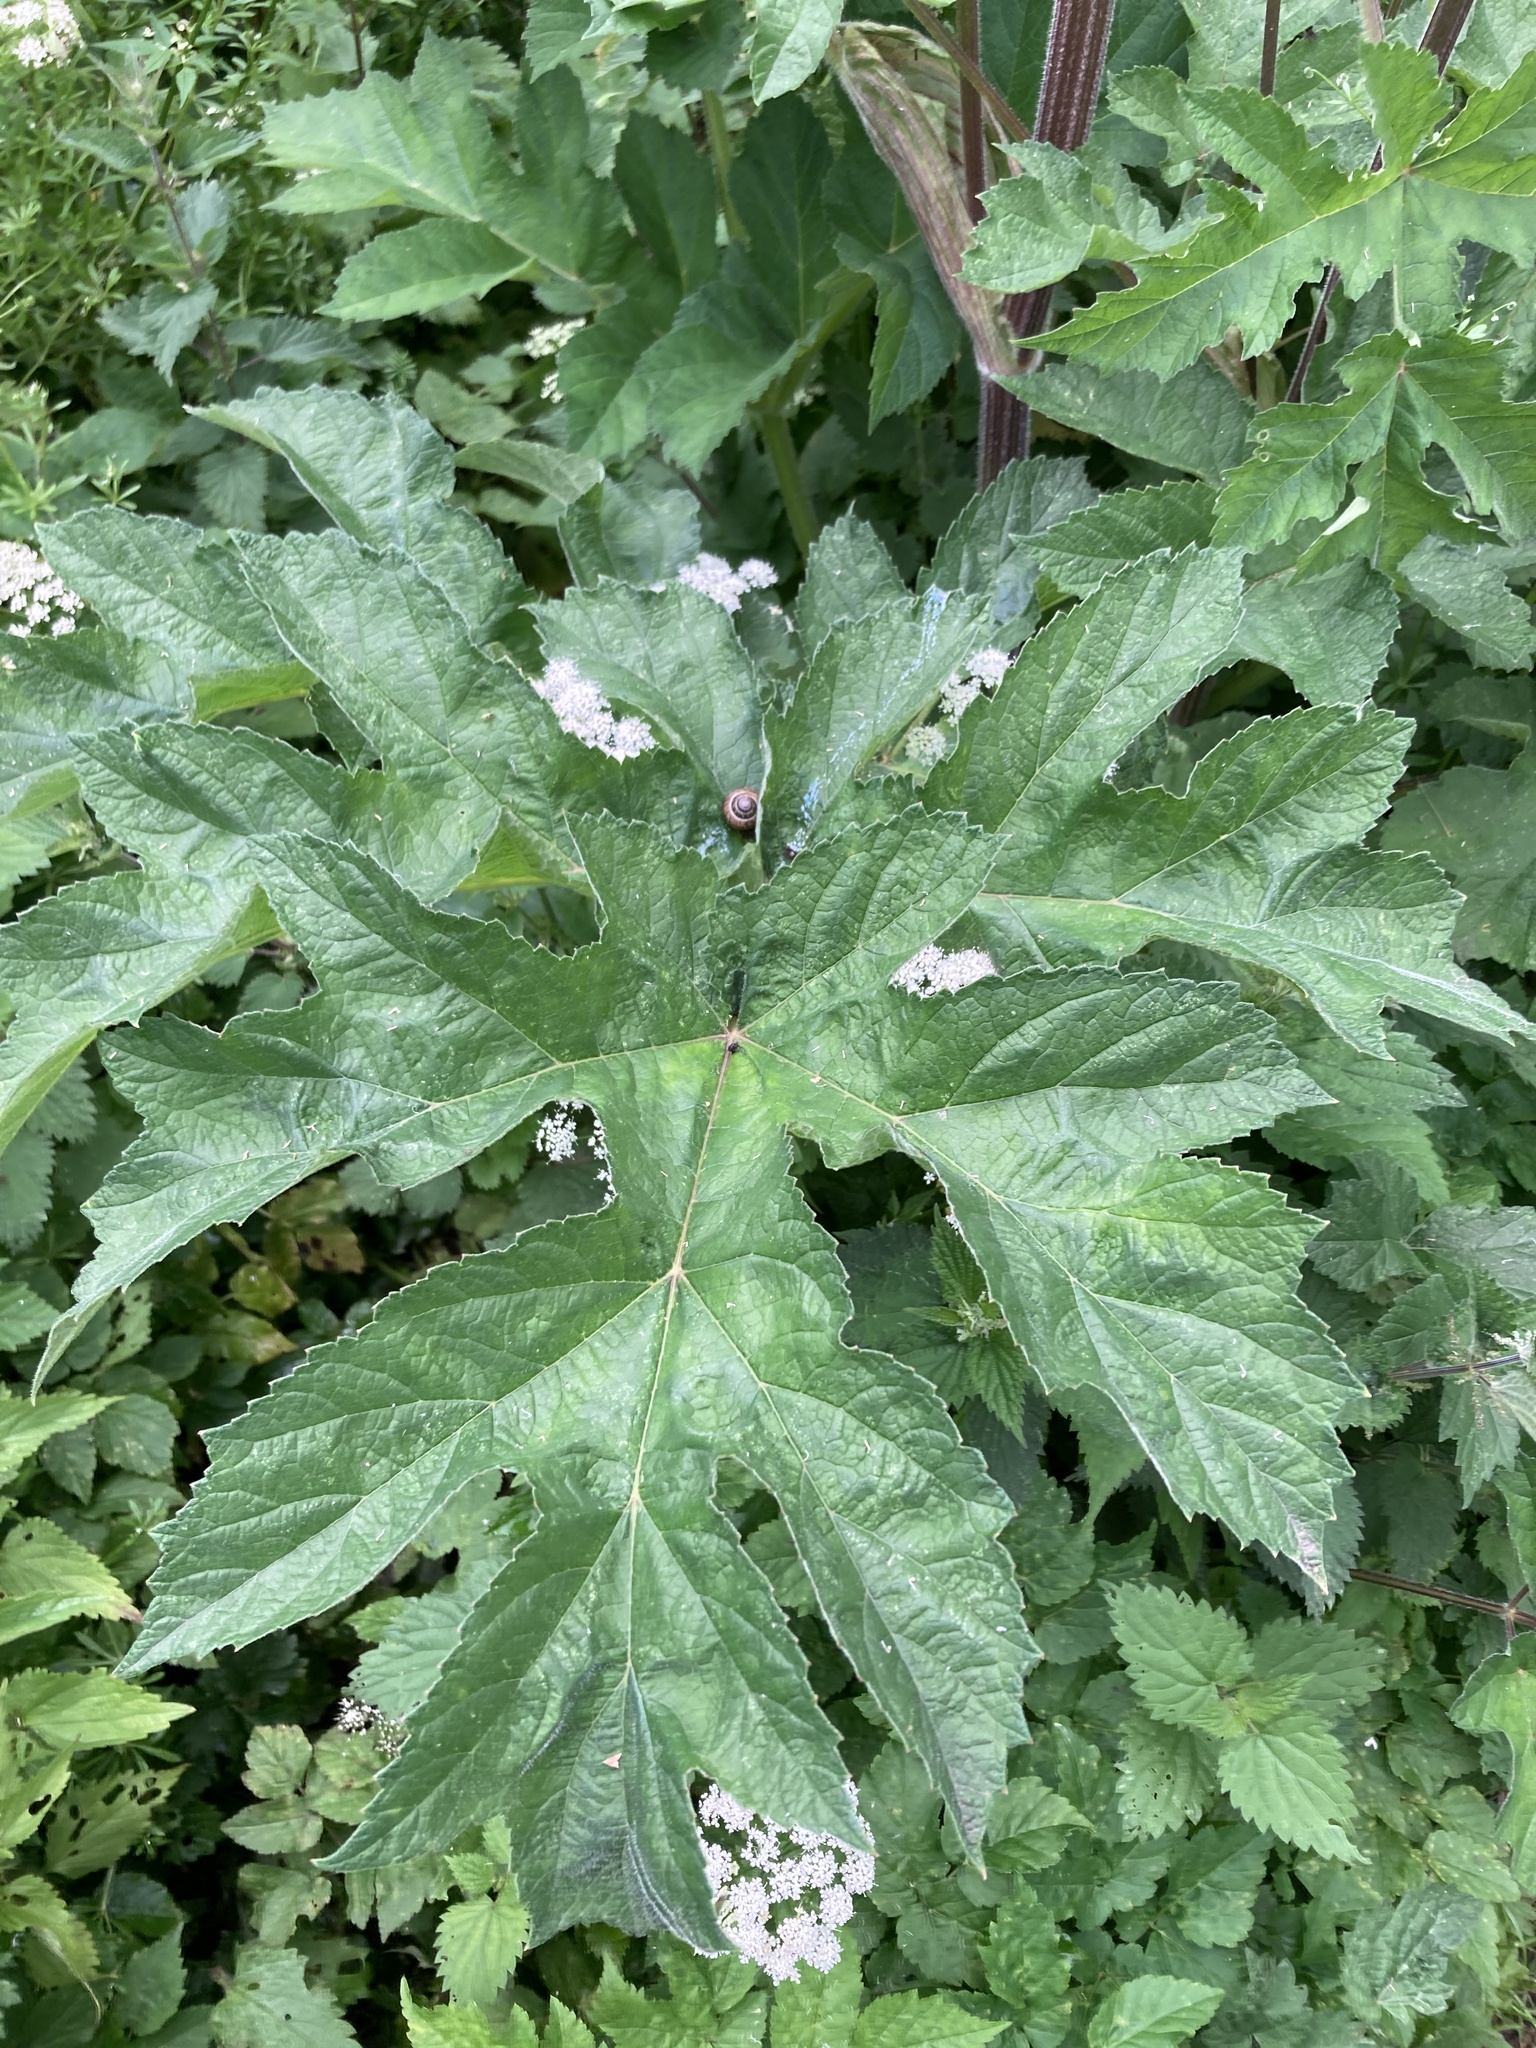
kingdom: Plantae
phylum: Tracheophyta
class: Magnoliopsida
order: Apiales
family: Apiaceae
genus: Heracleum
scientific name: Heracleum sphondylium
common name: Hogweed
